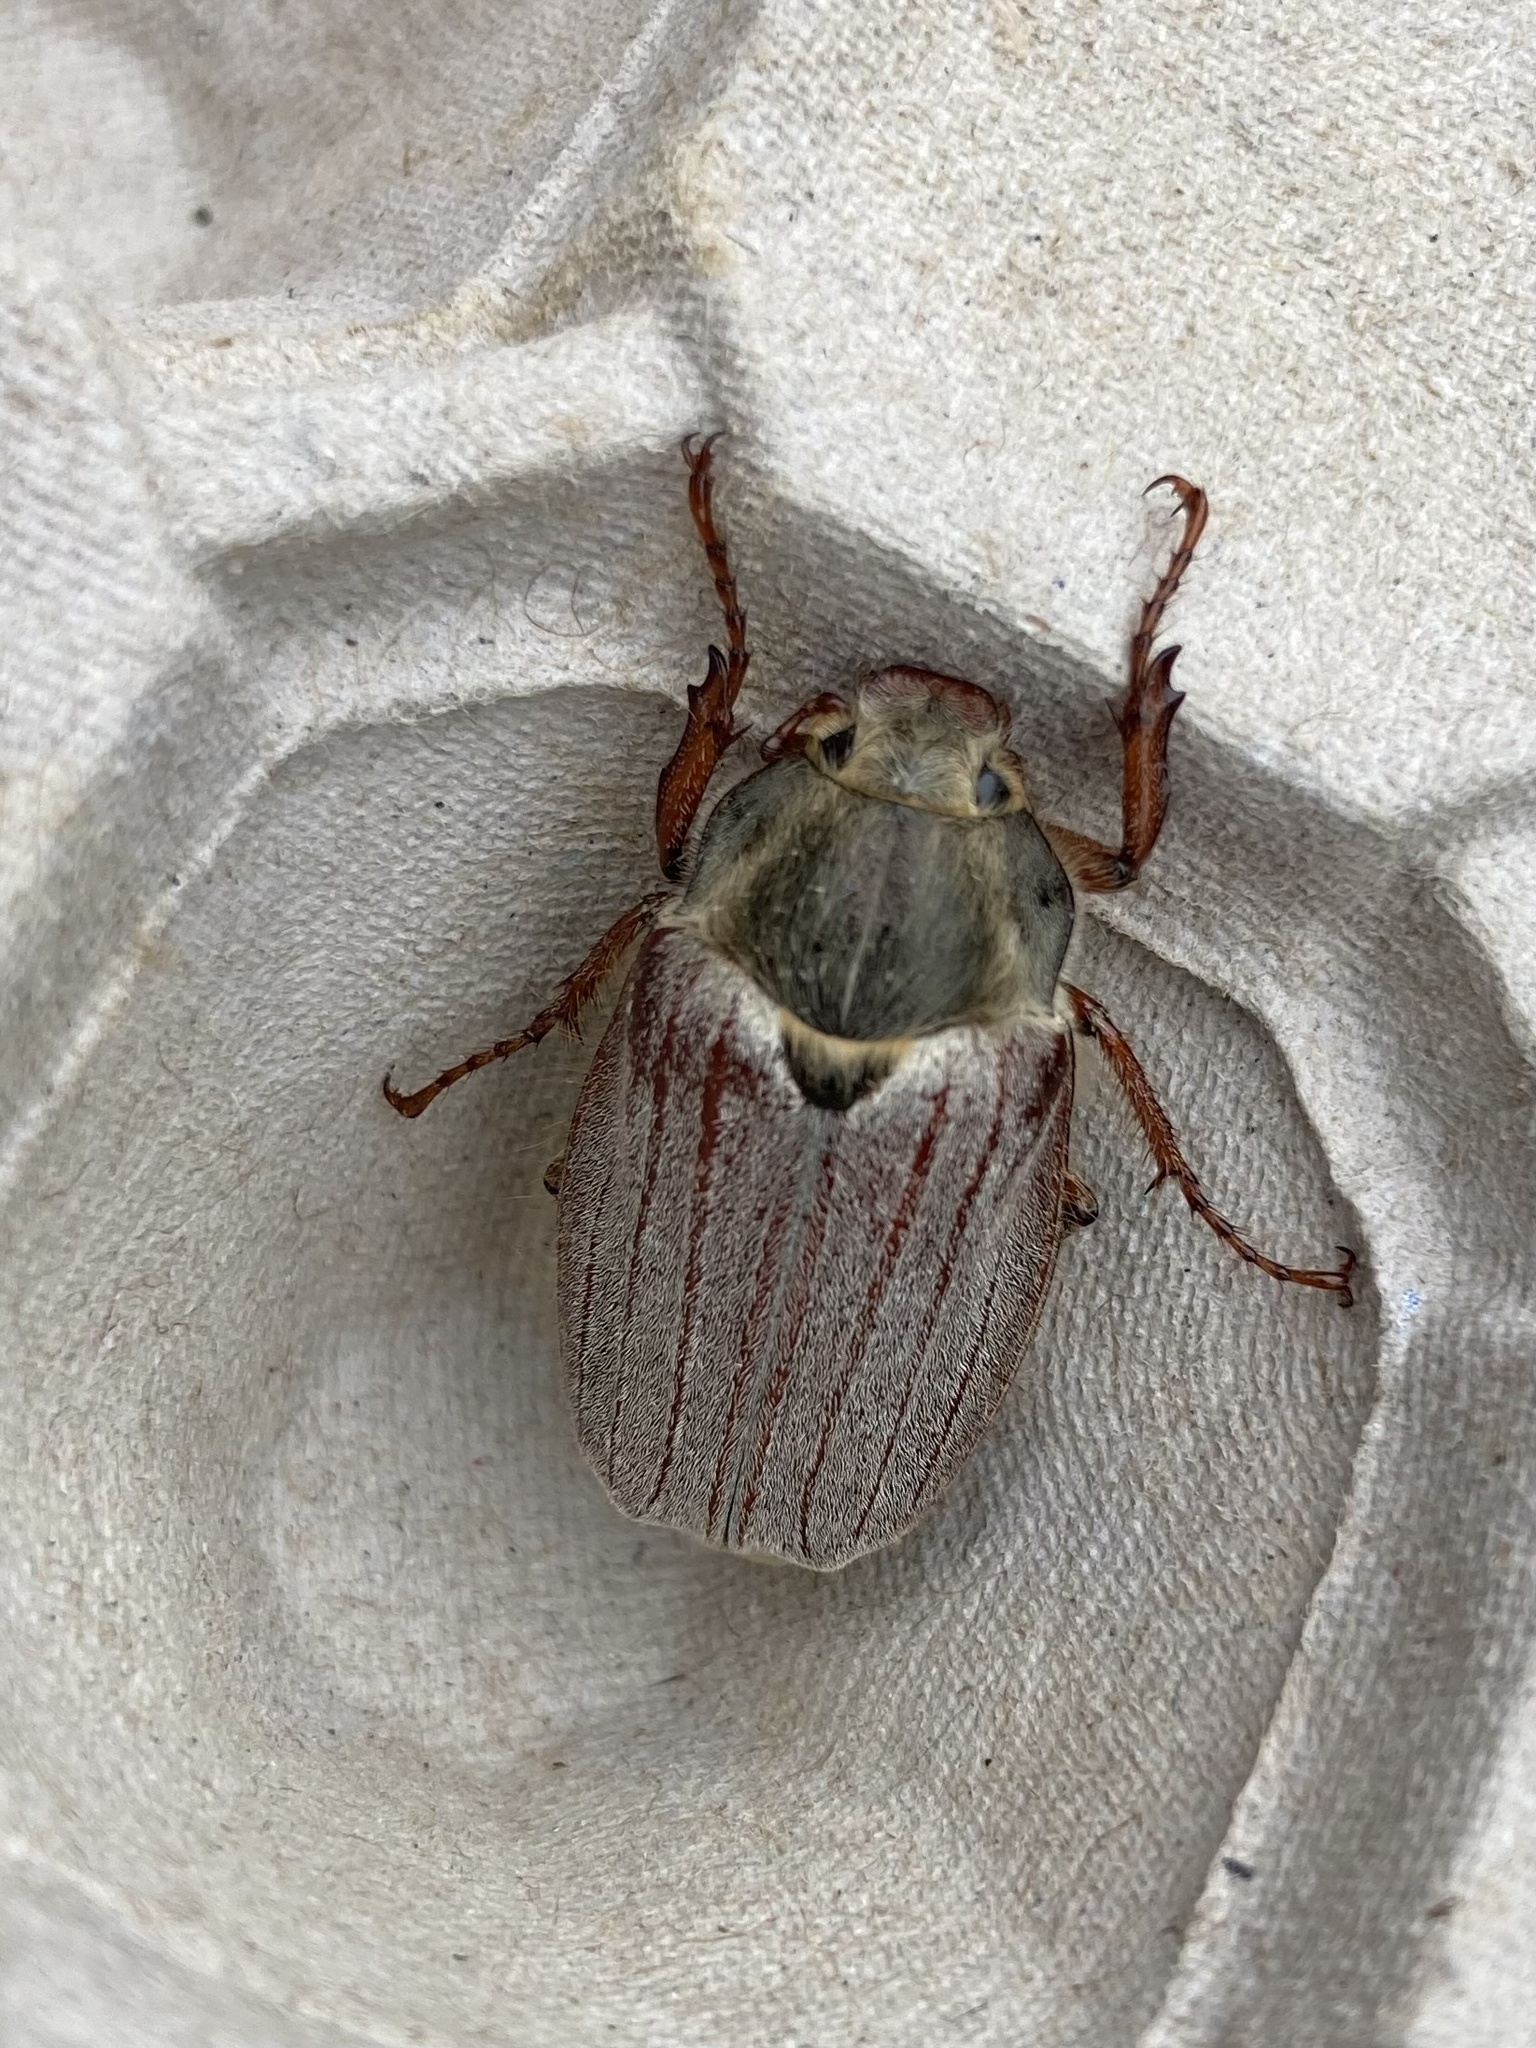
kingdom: Animalia
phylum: Arthropoda
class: Insecta
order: Coleoptera
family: Scarabaeidae
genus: Melolontha
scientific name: Melolontha melolontha
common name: Cockchafer maybeetle
